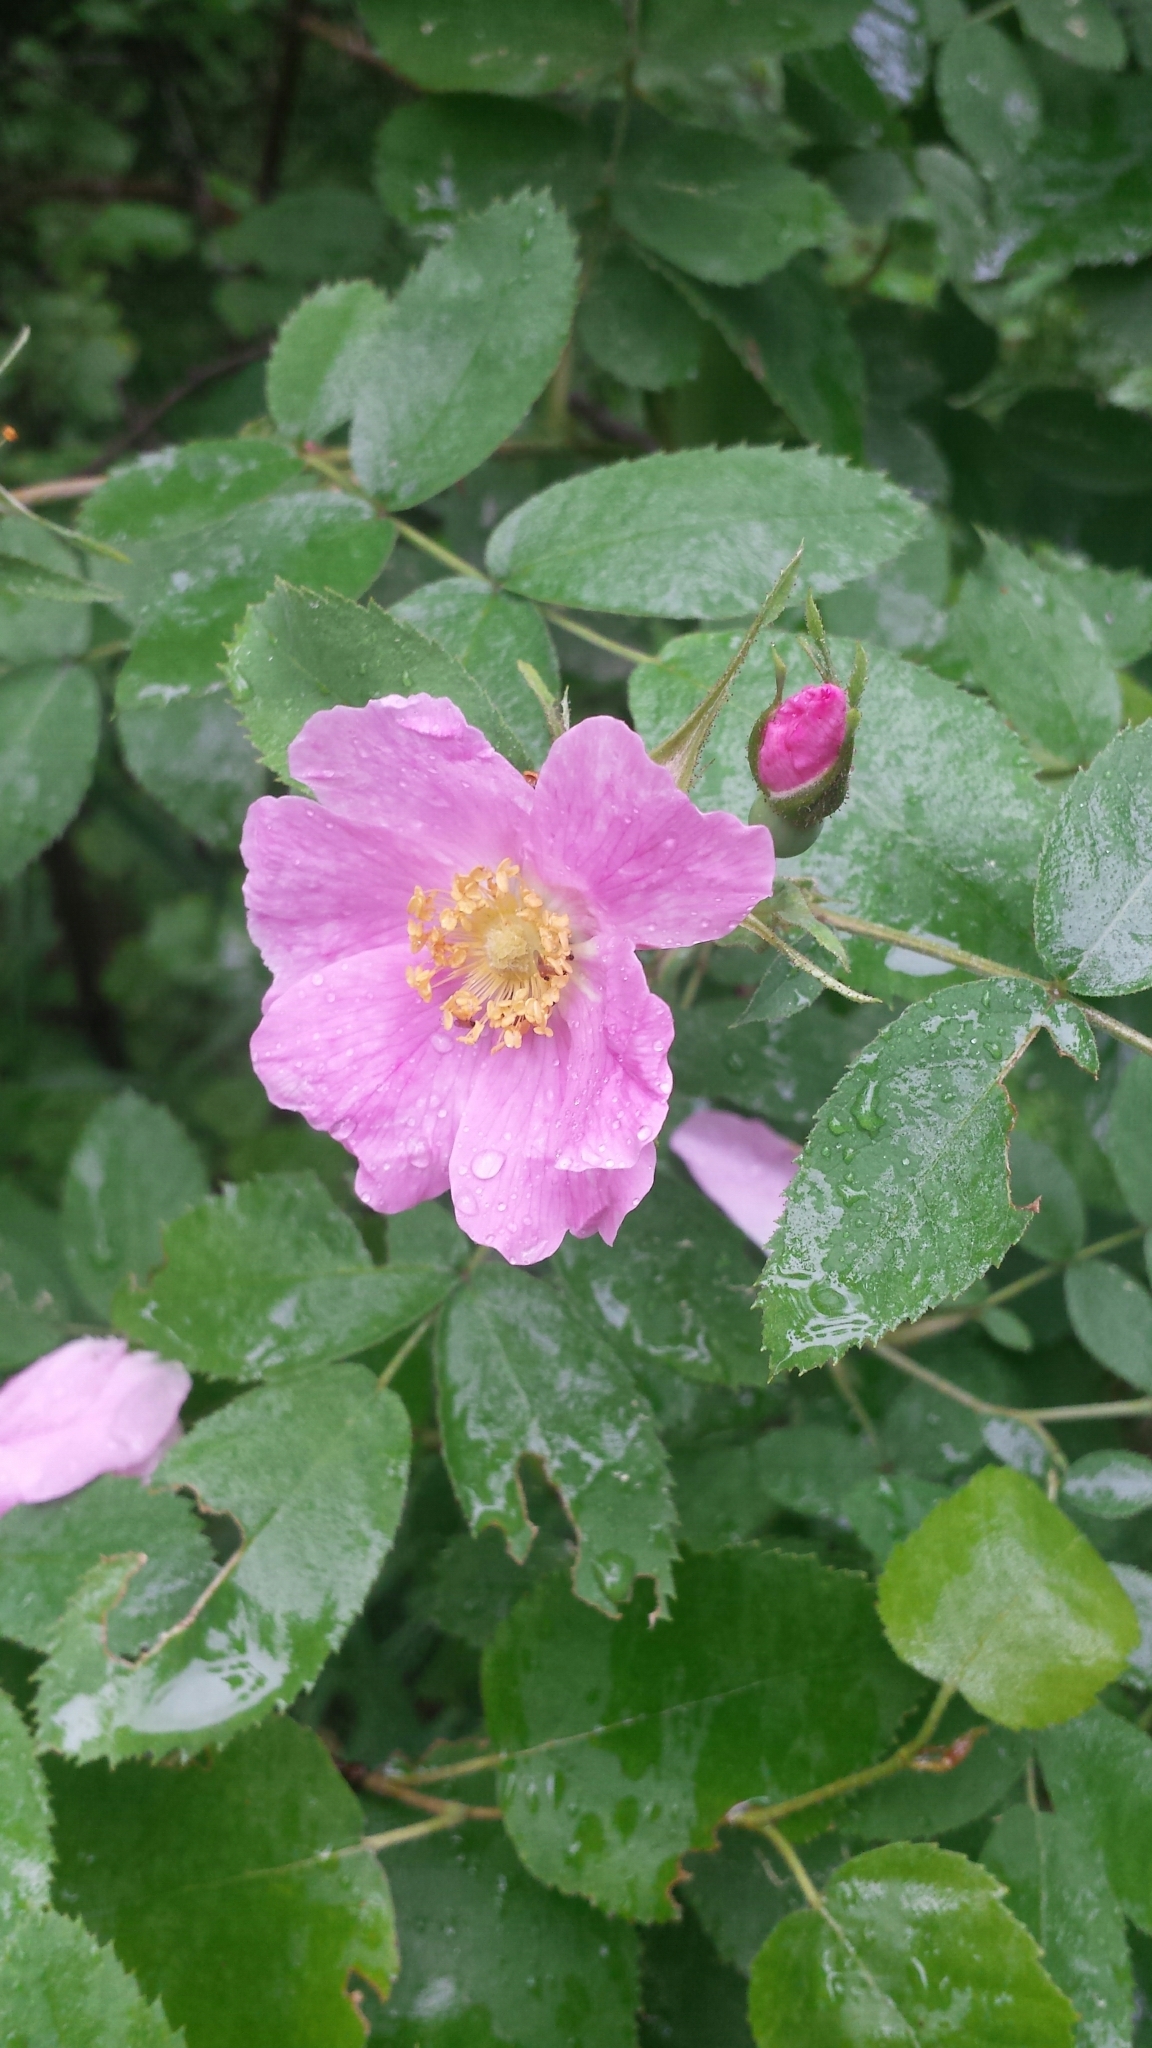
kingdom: Plantae
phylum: Tracheophyta
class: Magnoliopsida
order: Rosales
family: Rosaceae
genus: Rosa
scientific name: Rosa sherardii
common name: Sherard's downy rose
